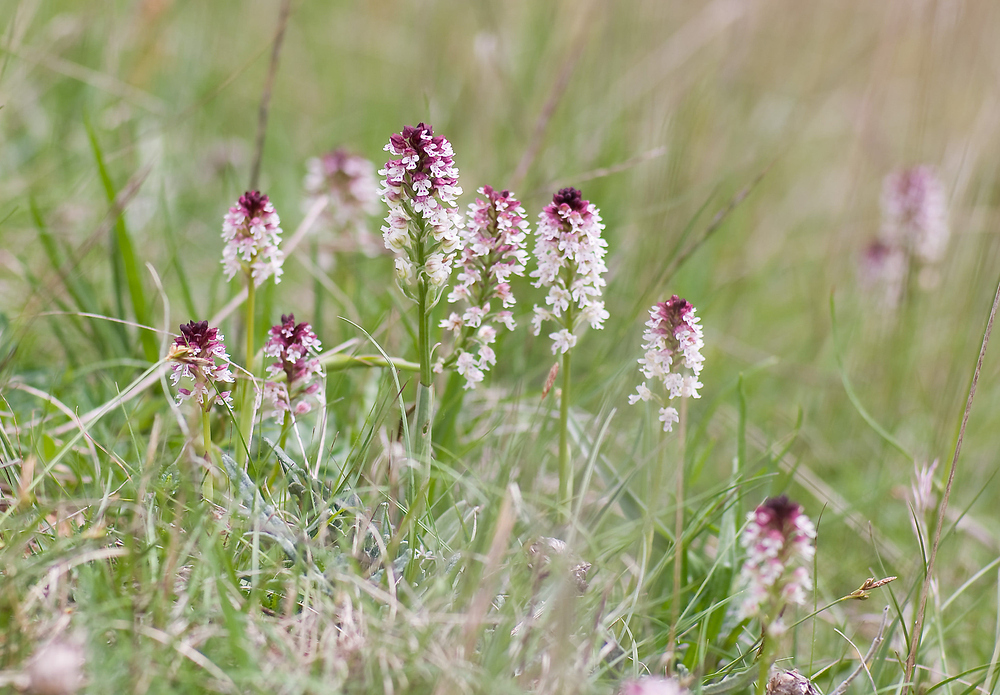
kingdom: Plantae
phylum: Tracheophyta
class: Liliopsida
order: Asparagales
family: Orchidaceae
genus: Neotinea
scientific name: Neotinea ustulata
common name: Burnt orchid
